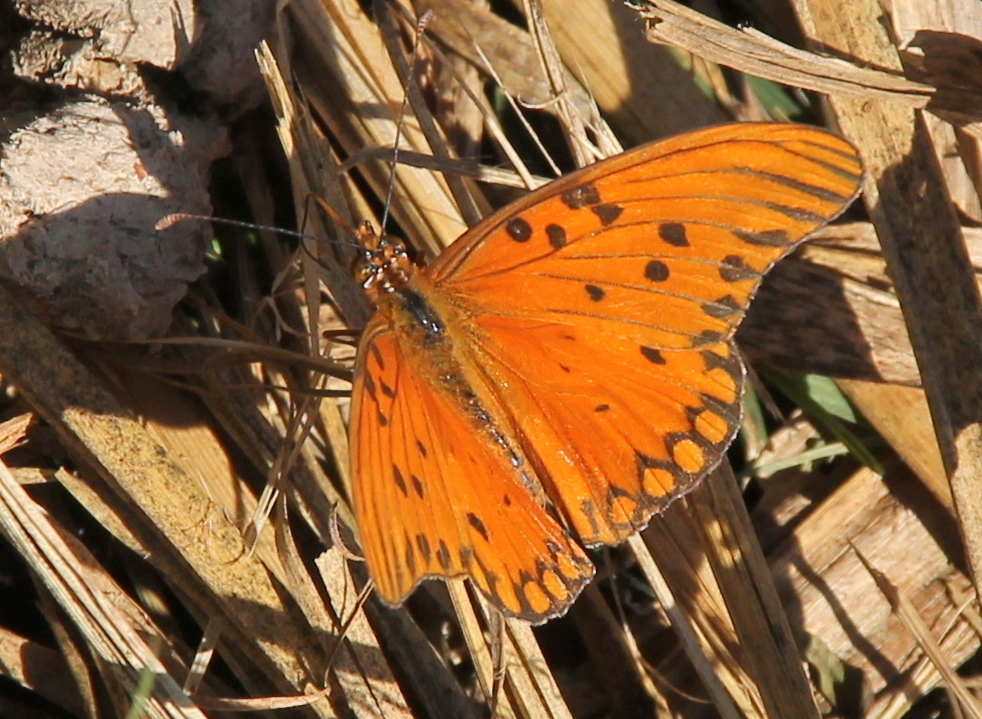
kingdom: Animalia
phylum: Arthropoda
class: Insecta
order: Lepidoptera
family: Nymphalidae
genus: Dione
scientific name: Dione vanillae
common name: Gulf fritillary
